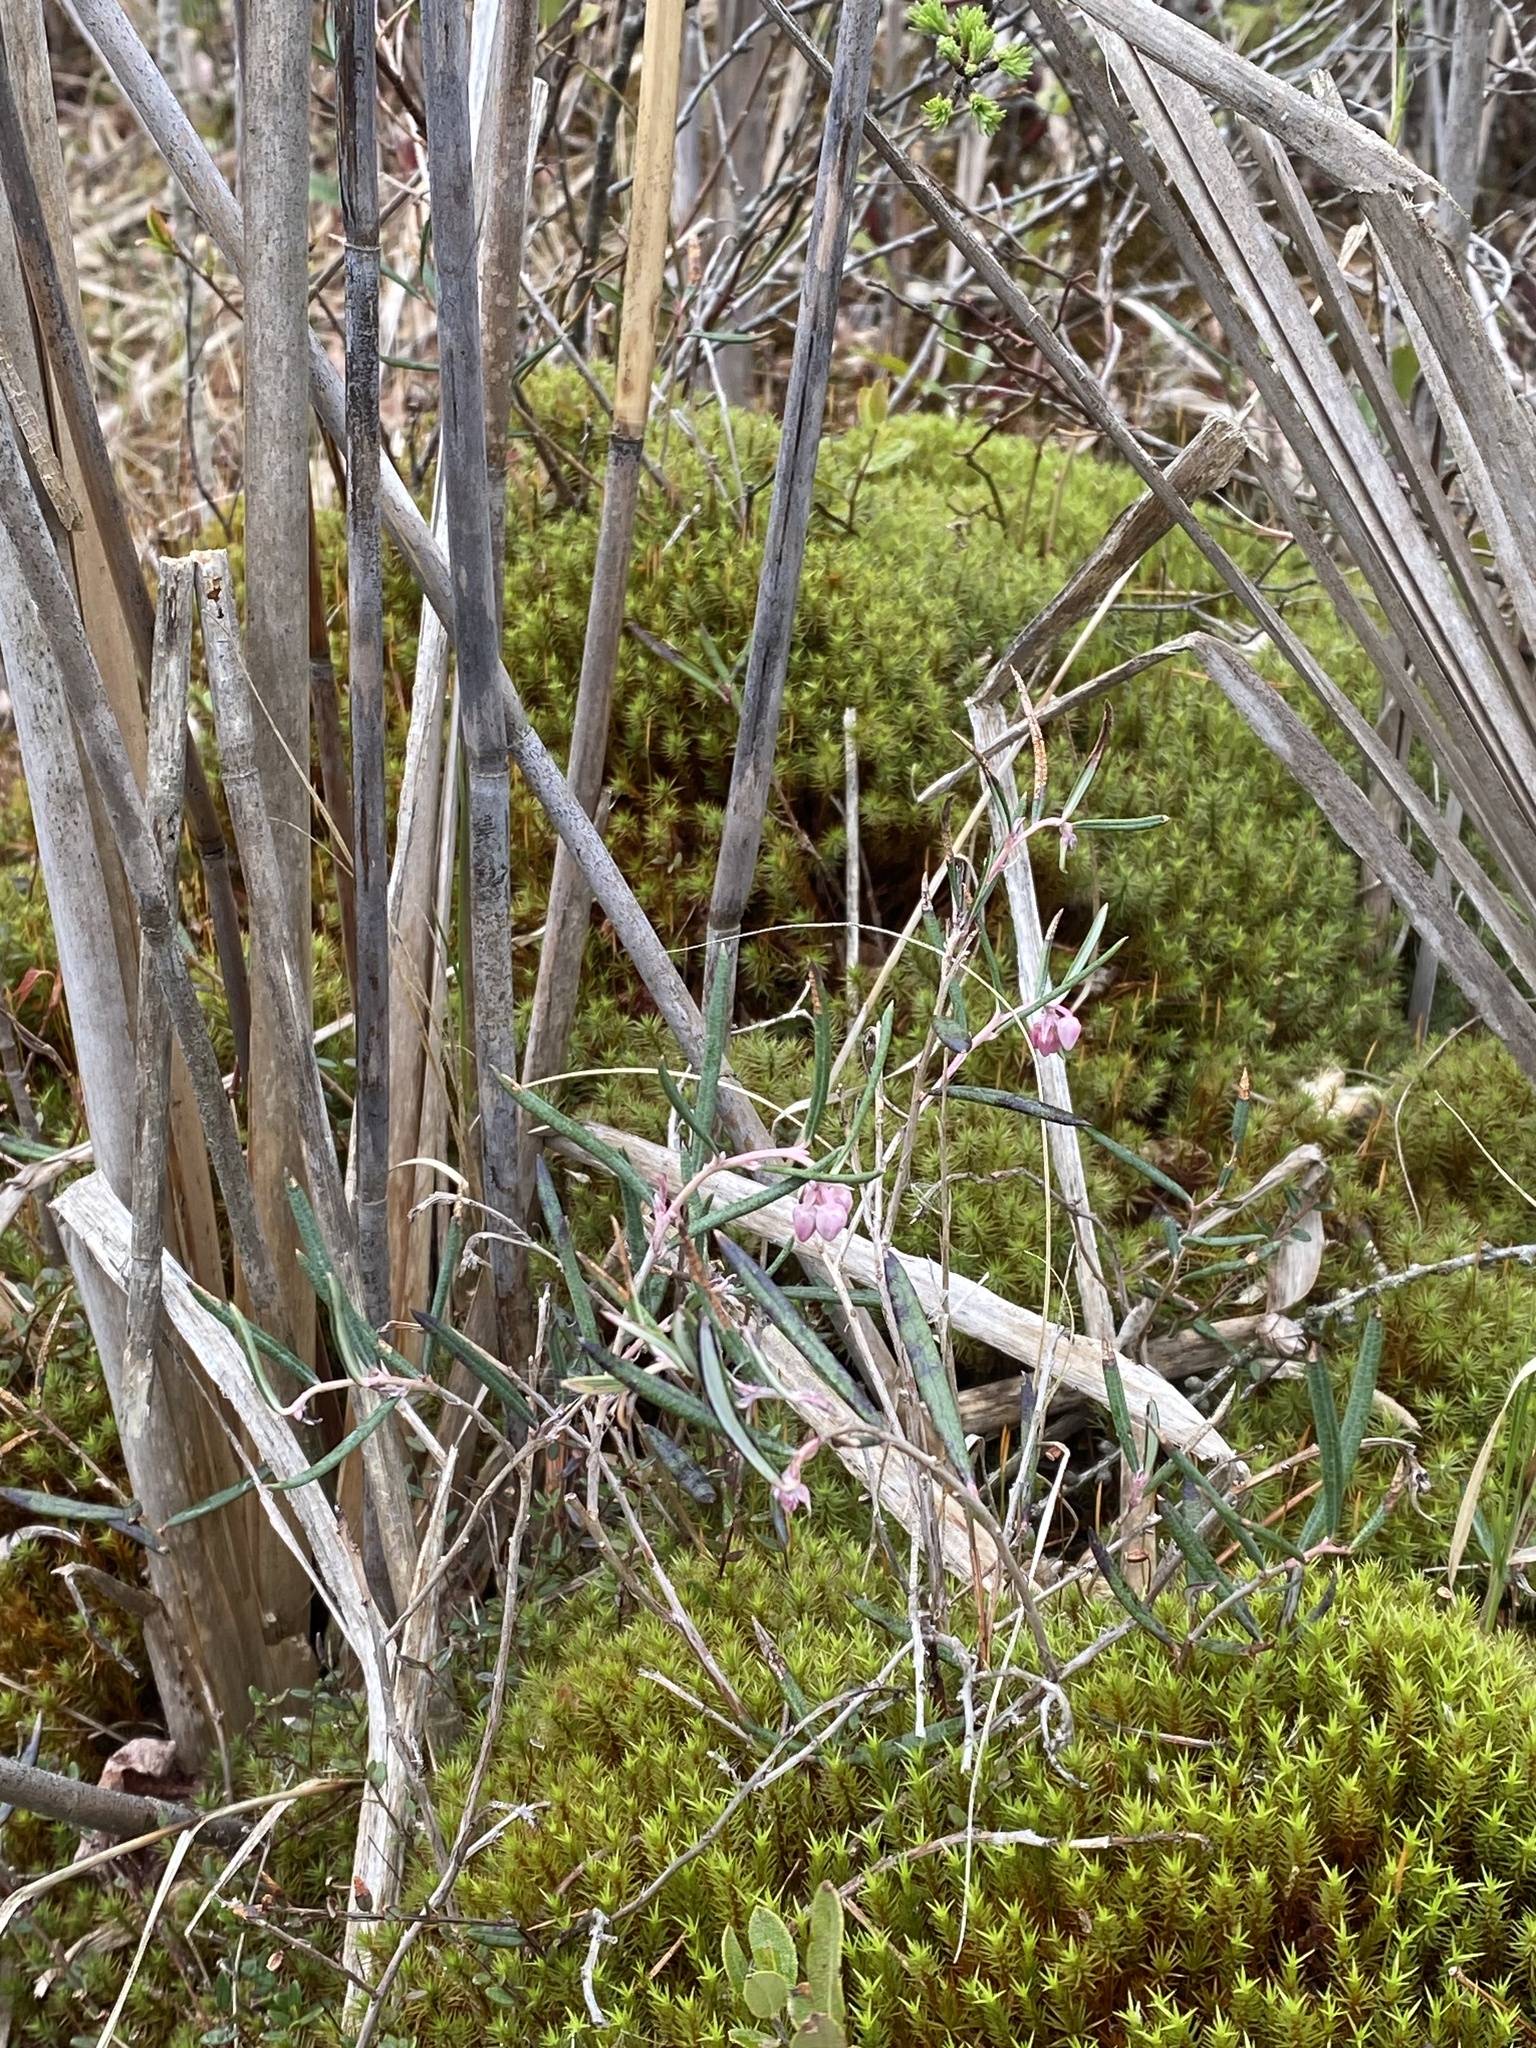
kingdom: Plantae
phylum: Tracheophyta
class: Magnoliopsida
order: Ericales
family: Ericaceae
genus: Andromeda
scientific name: Andromeda polifolia
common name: Bog-rosemary
